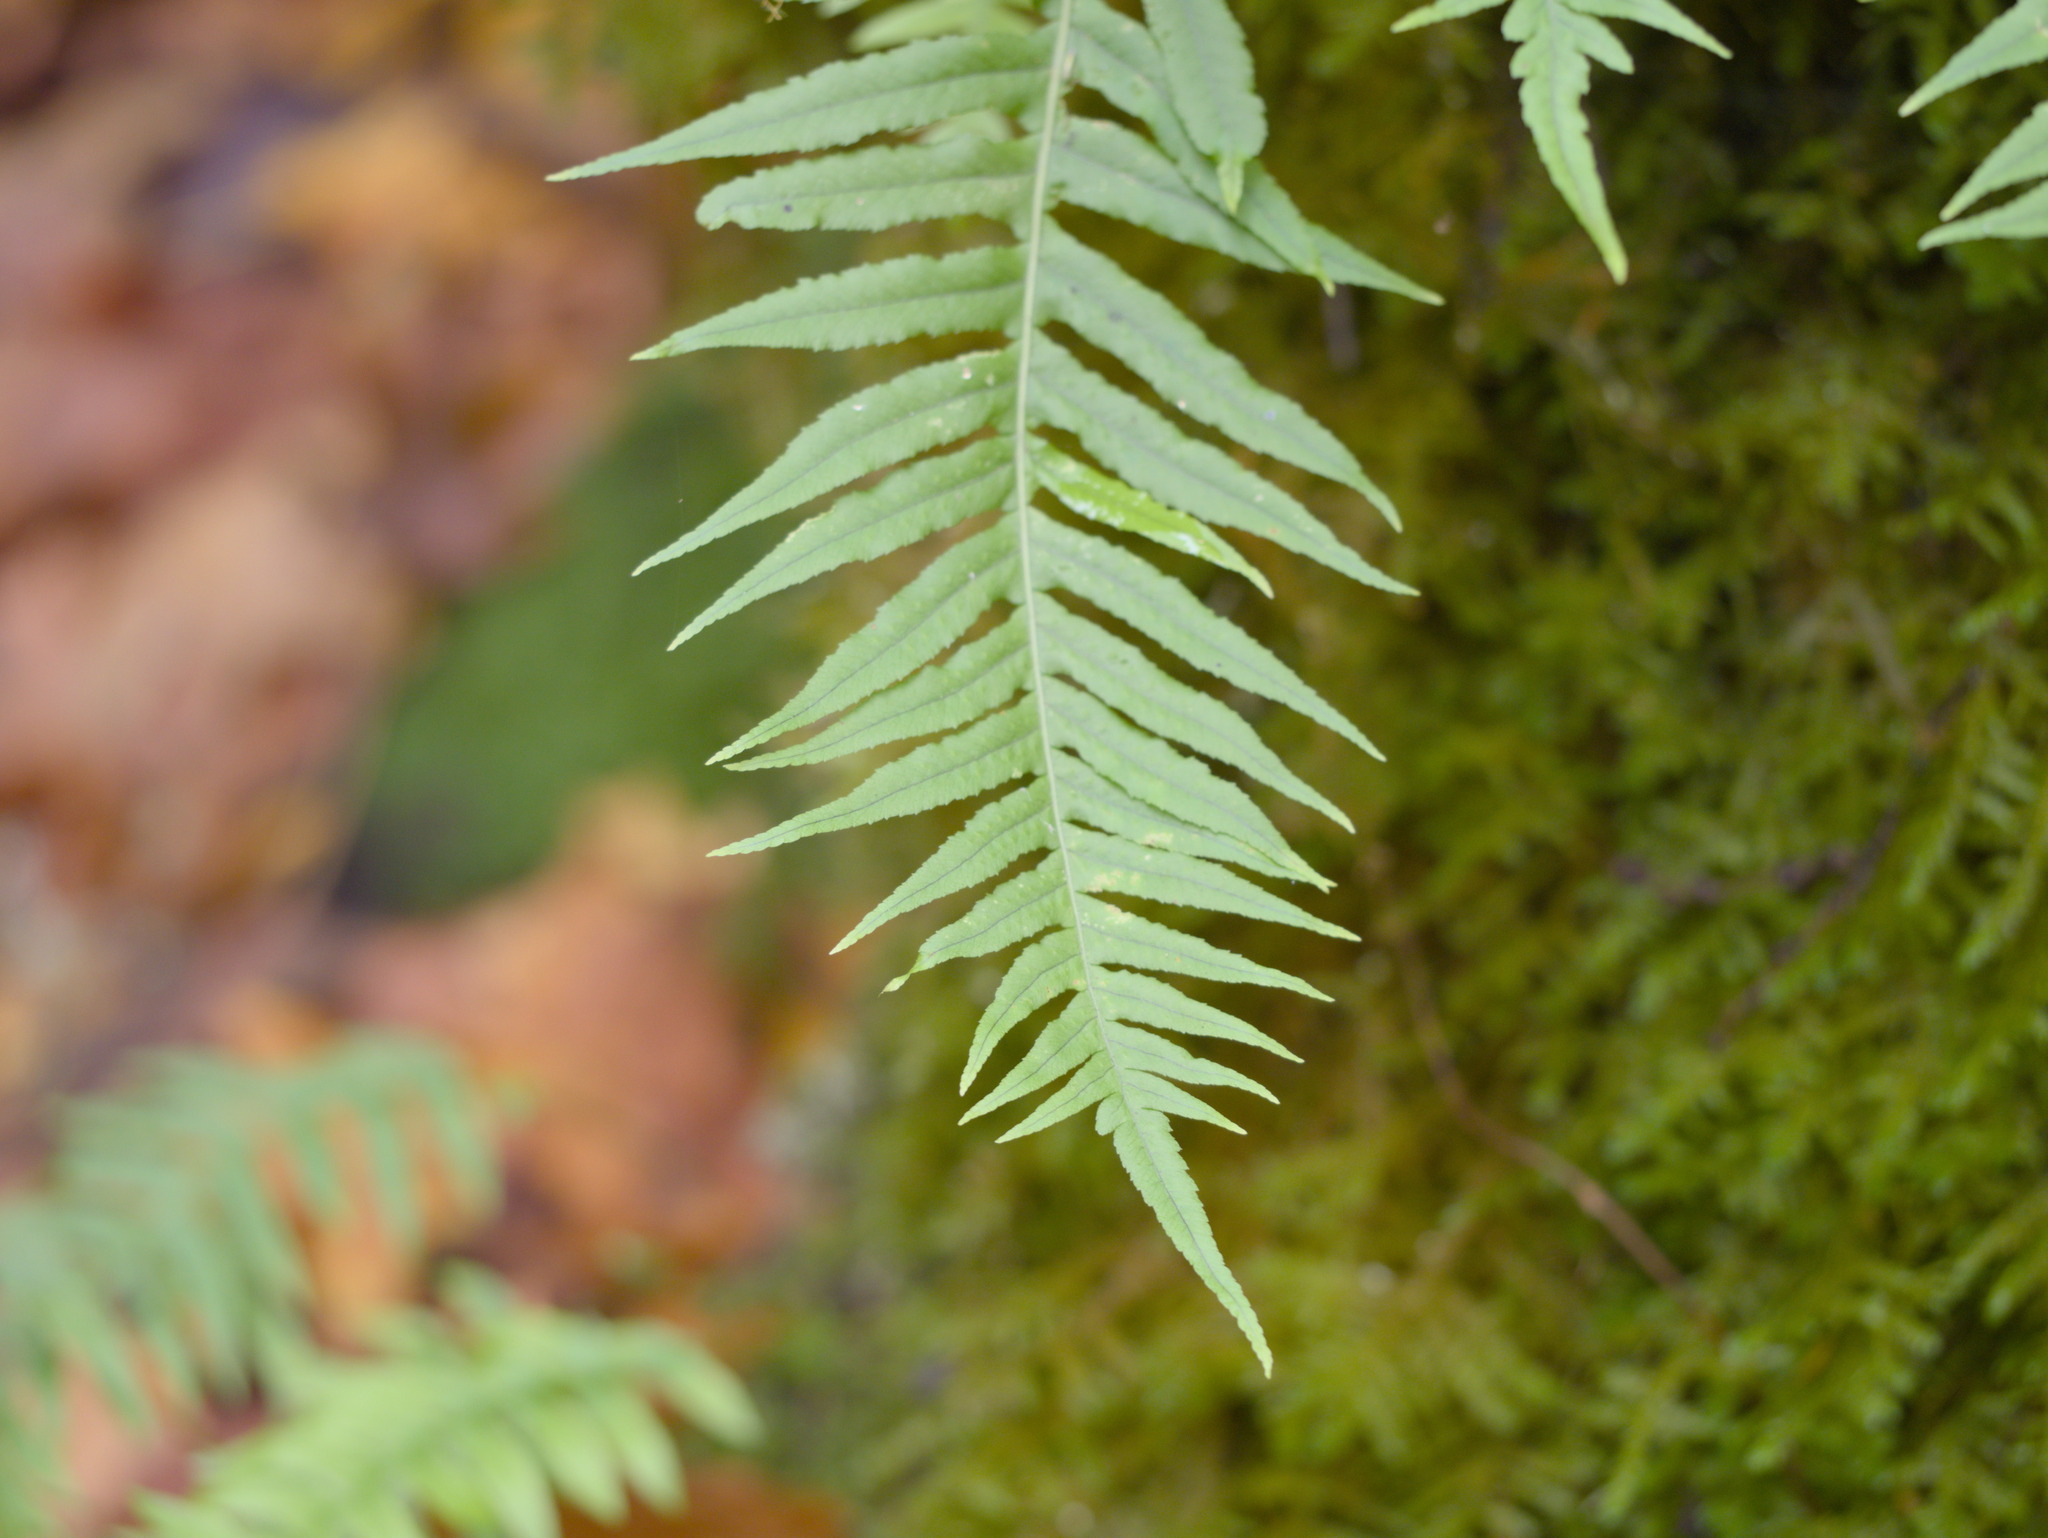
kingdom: Plantae
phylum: Tracheophyta
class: Polypodiopsida
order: Polypodiales
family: Polypodiaceae
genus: Polypodium
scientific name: Polypodium glycyrrhiza
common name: Licorice fern
